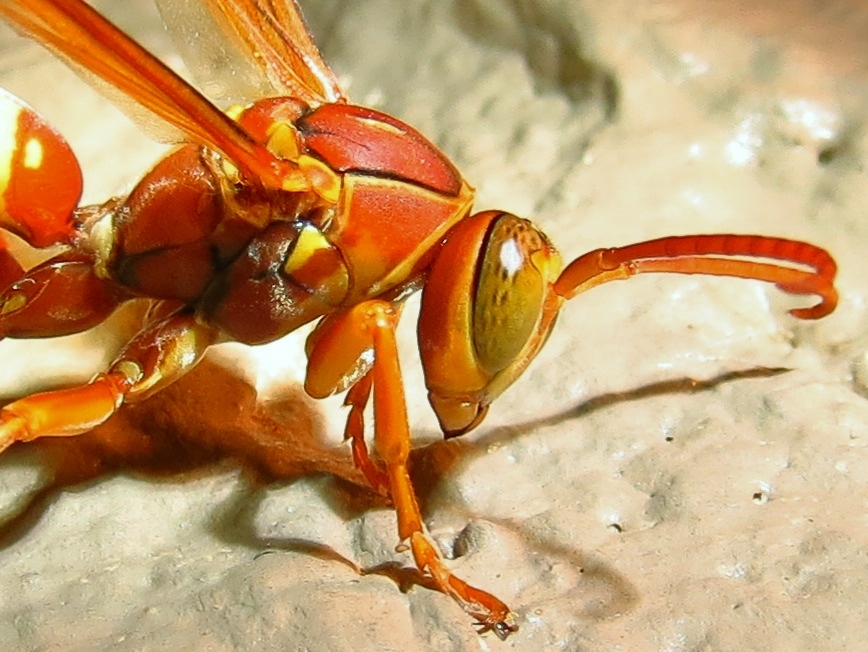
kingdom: Animalia
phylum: Arthropoda
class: Insecta
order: Hymenoptera
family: Eumenidae
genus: Polistes
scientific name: Polistes apachus
